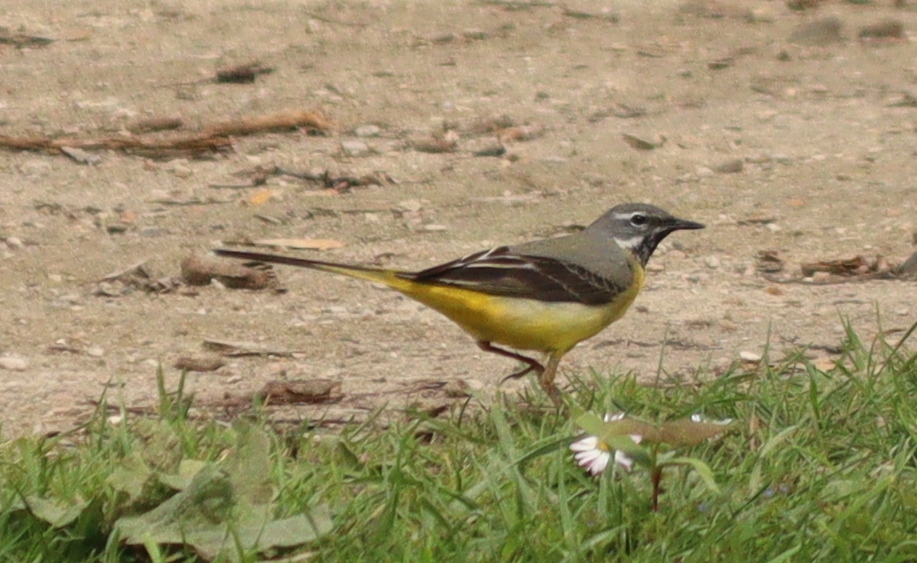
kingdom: Animalia
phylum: Chordata
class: Aves
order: Passeriformes
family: Motacillidae
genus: Motacilla
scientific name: Motacilla cinerea
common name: Grey wagtail
